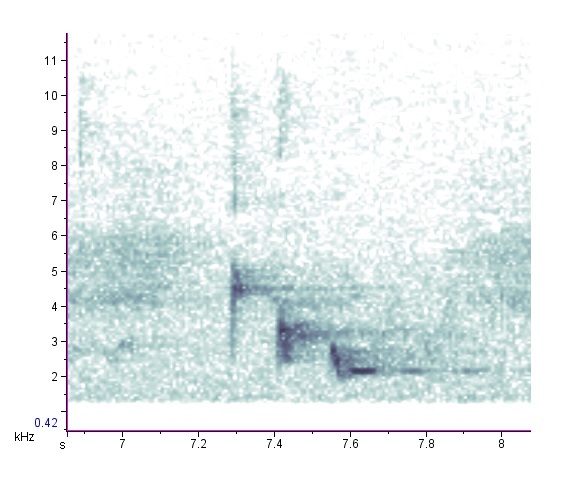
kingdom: Animalia
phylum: Chordata
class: Aves
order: Passeriformes
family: Cardinalidae
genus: Piranga
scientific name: Piranga rubra
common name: Summer tanager
